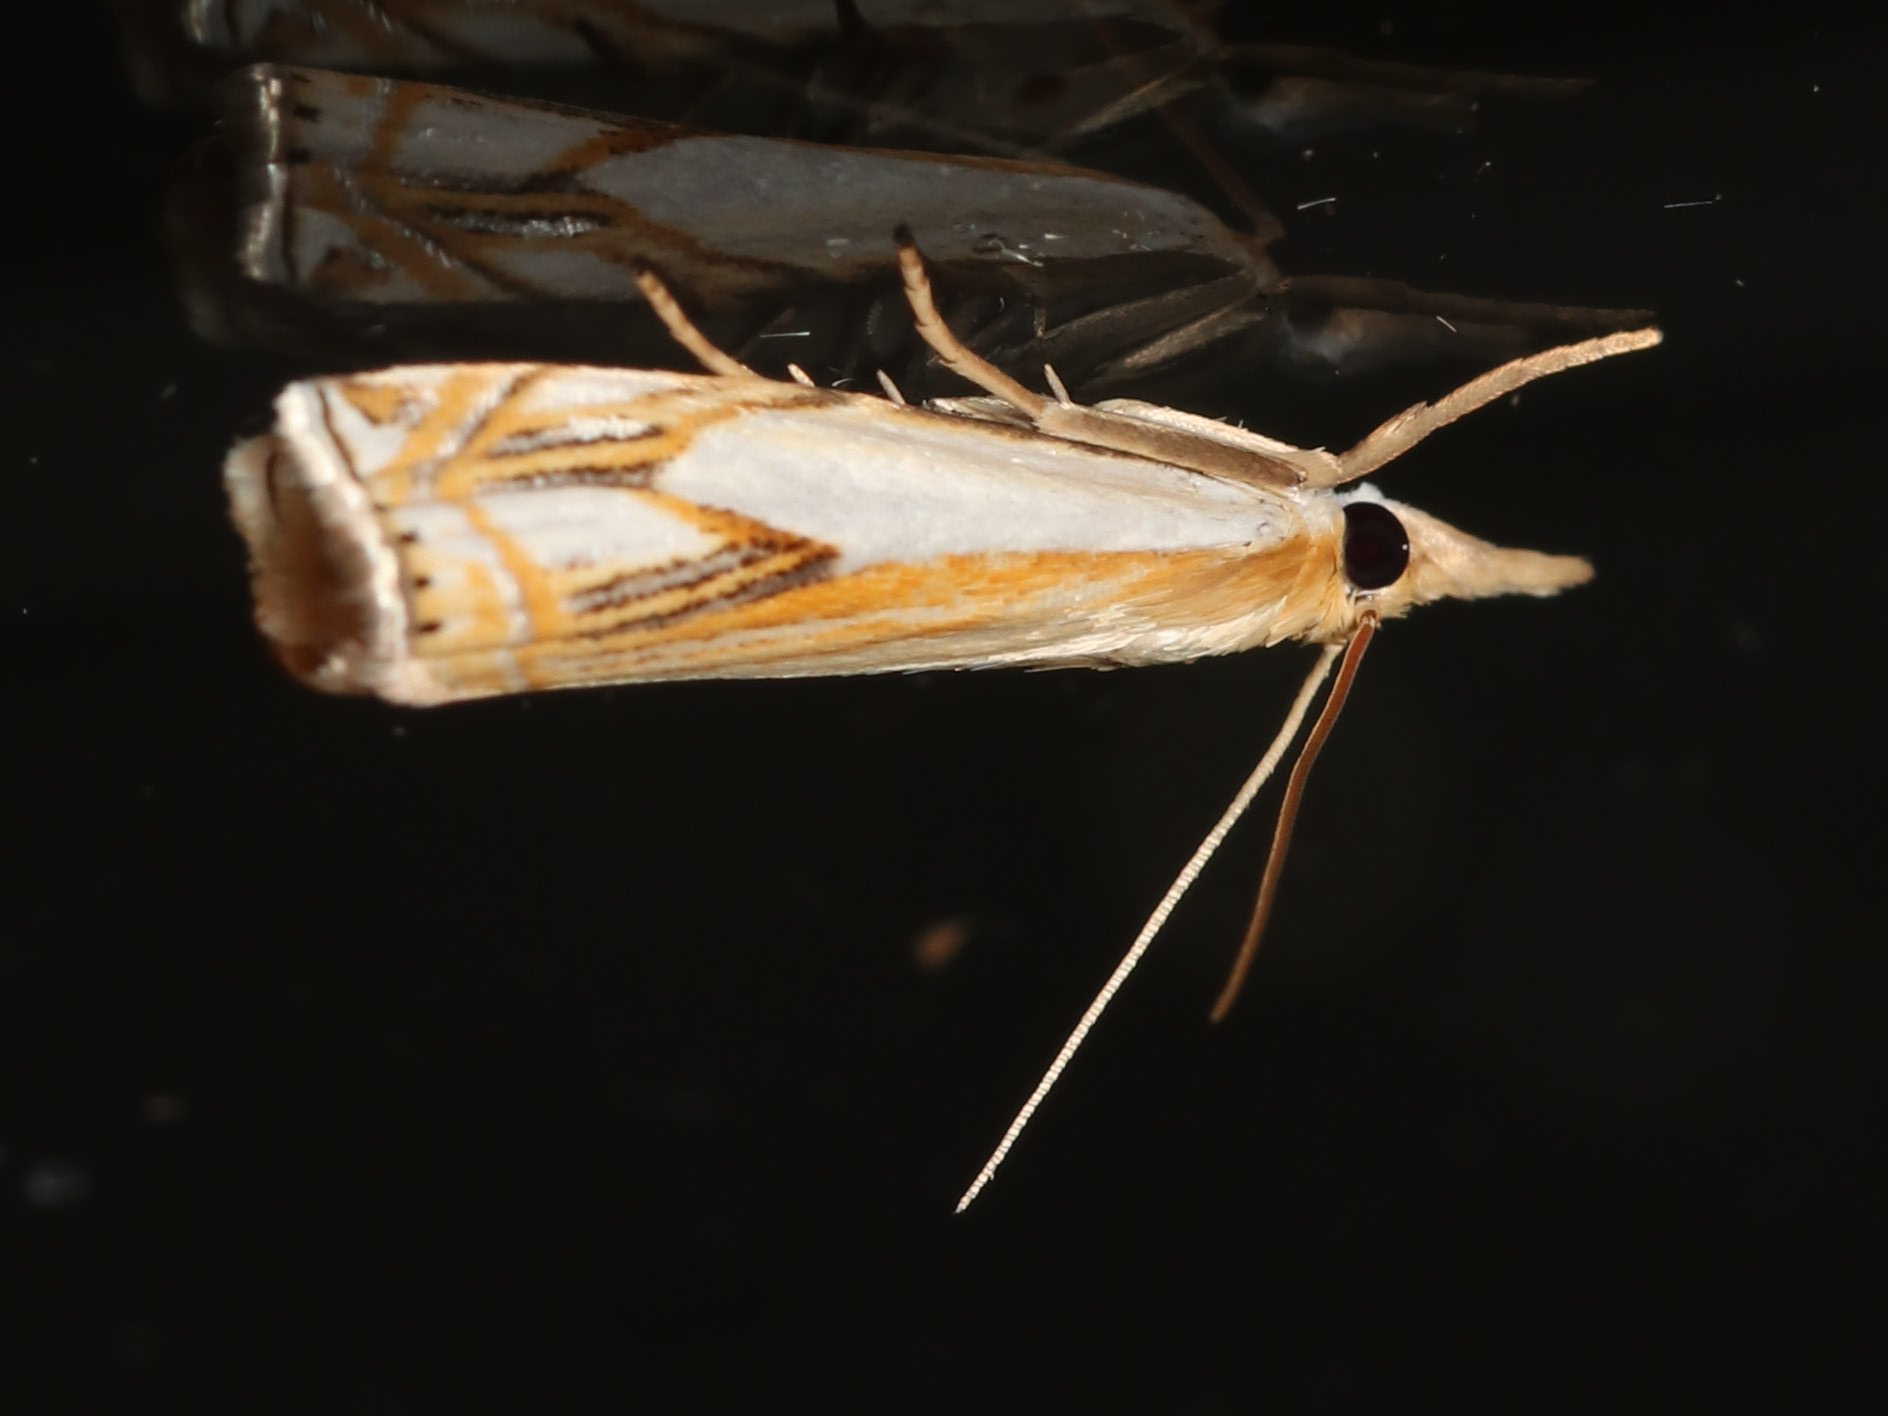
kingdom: Animalia
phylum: Arthropoda
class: Insecta
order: Lepidoptera
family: Crambidae
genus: Crambus
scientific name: Crambus agitatellus
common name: Double-banded grass-veneer
